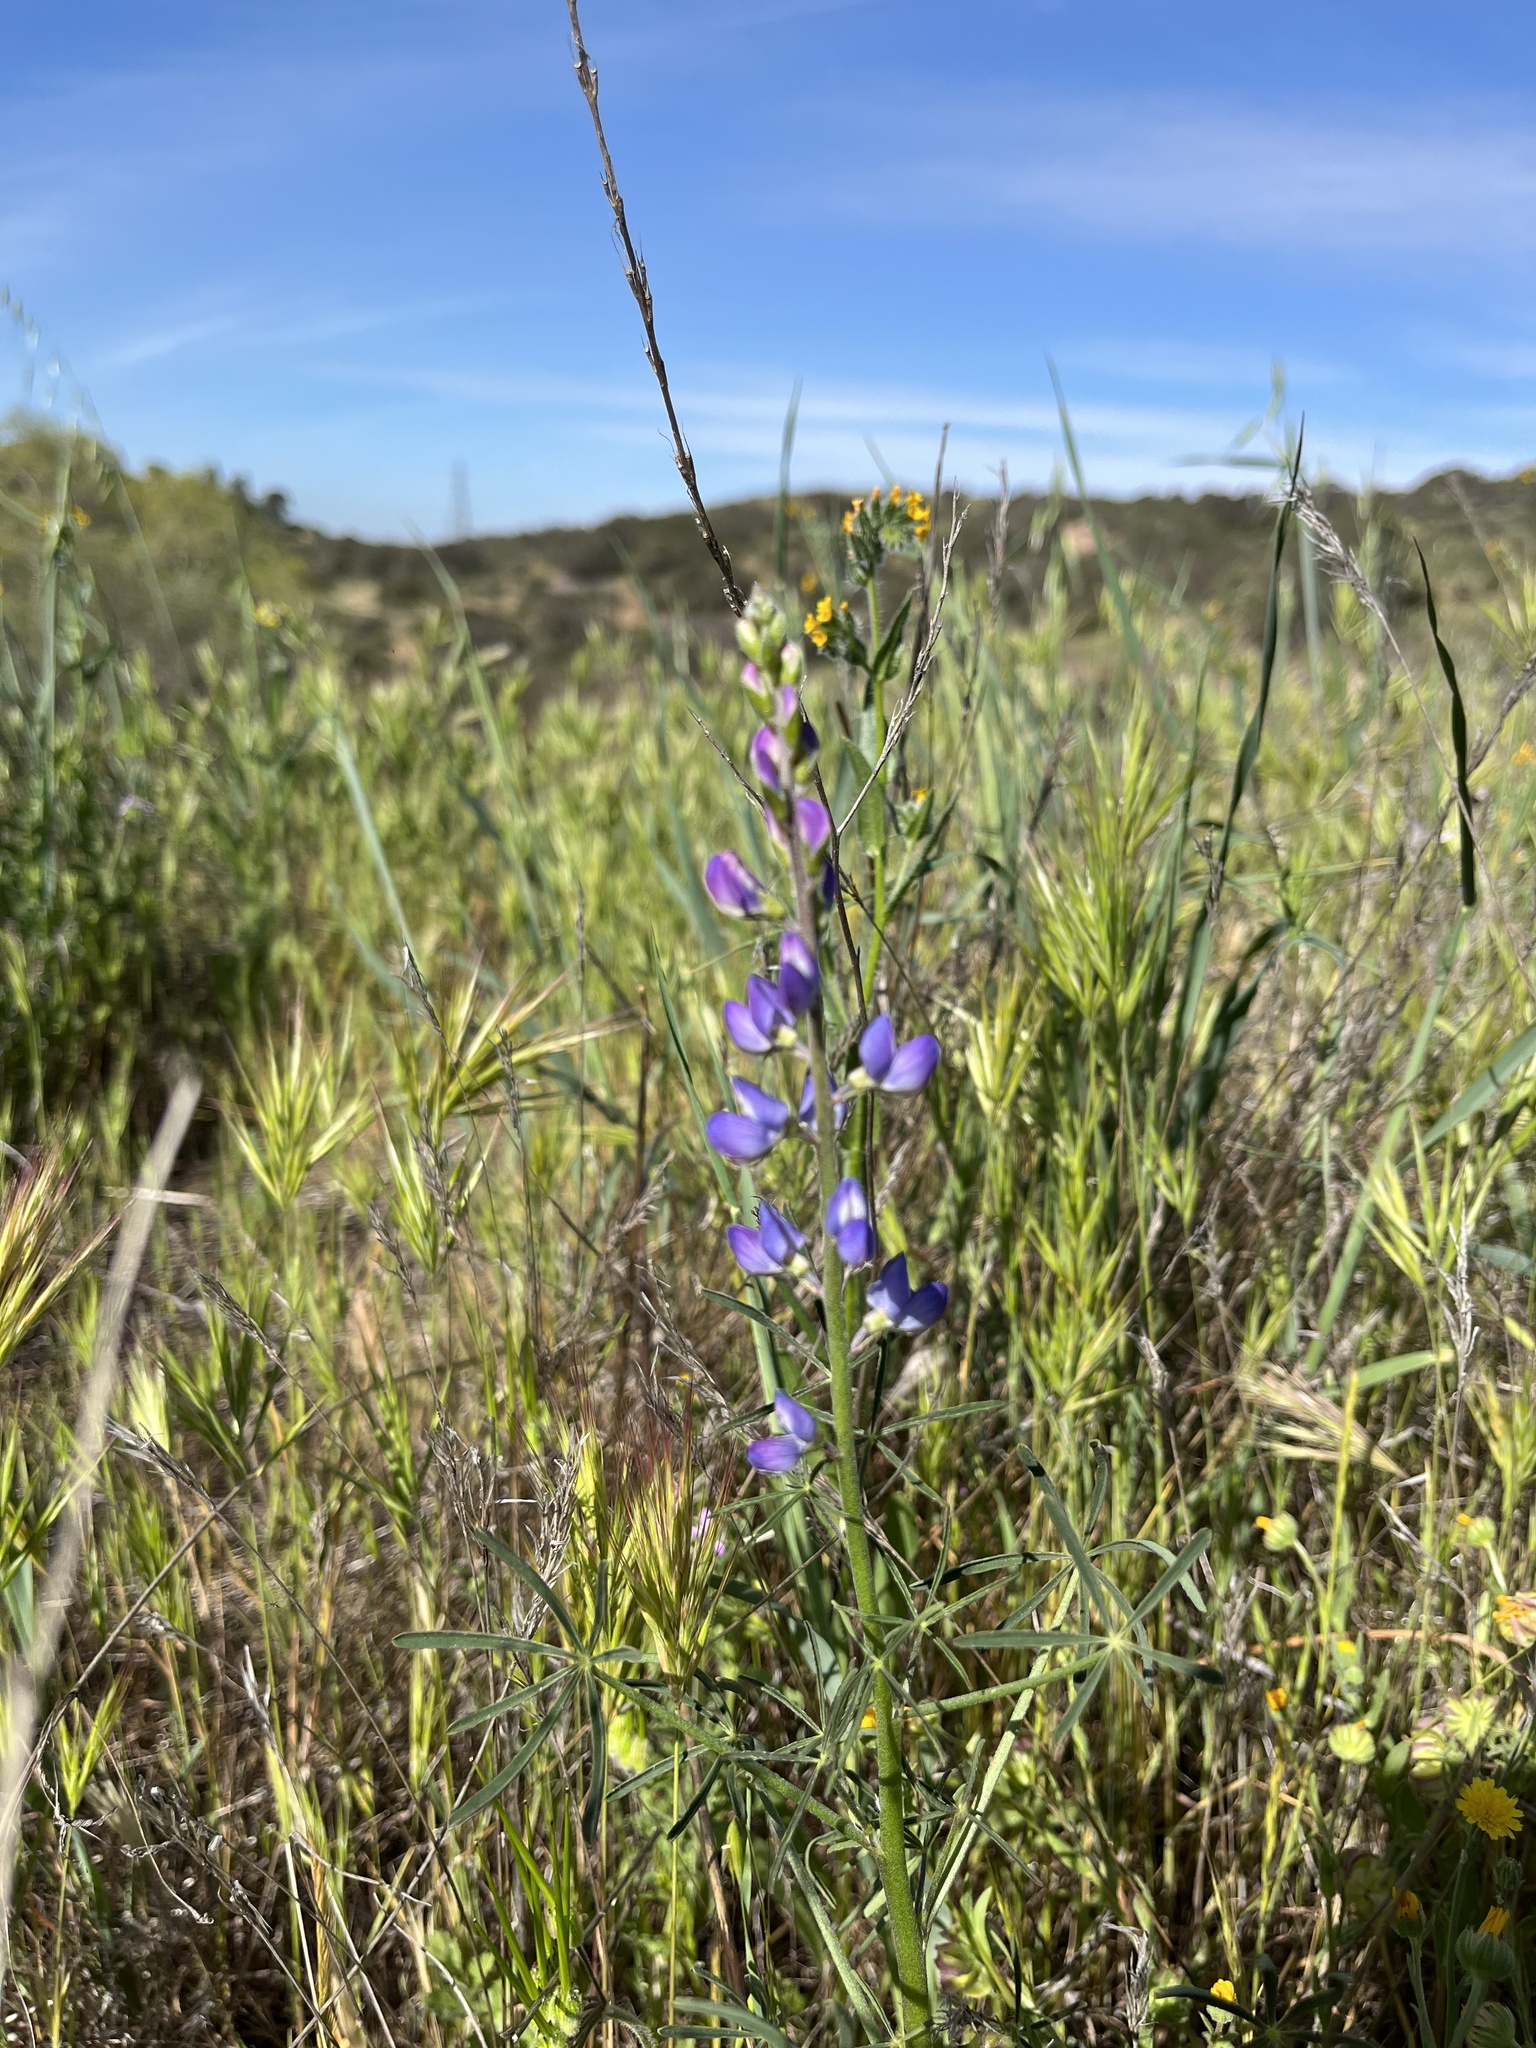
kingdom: Plantae
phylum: Tracheophyta
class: Magnoliopsida
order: Fabales
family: Fabaceae
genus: Lupinus
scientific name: Lupinus truncatus
